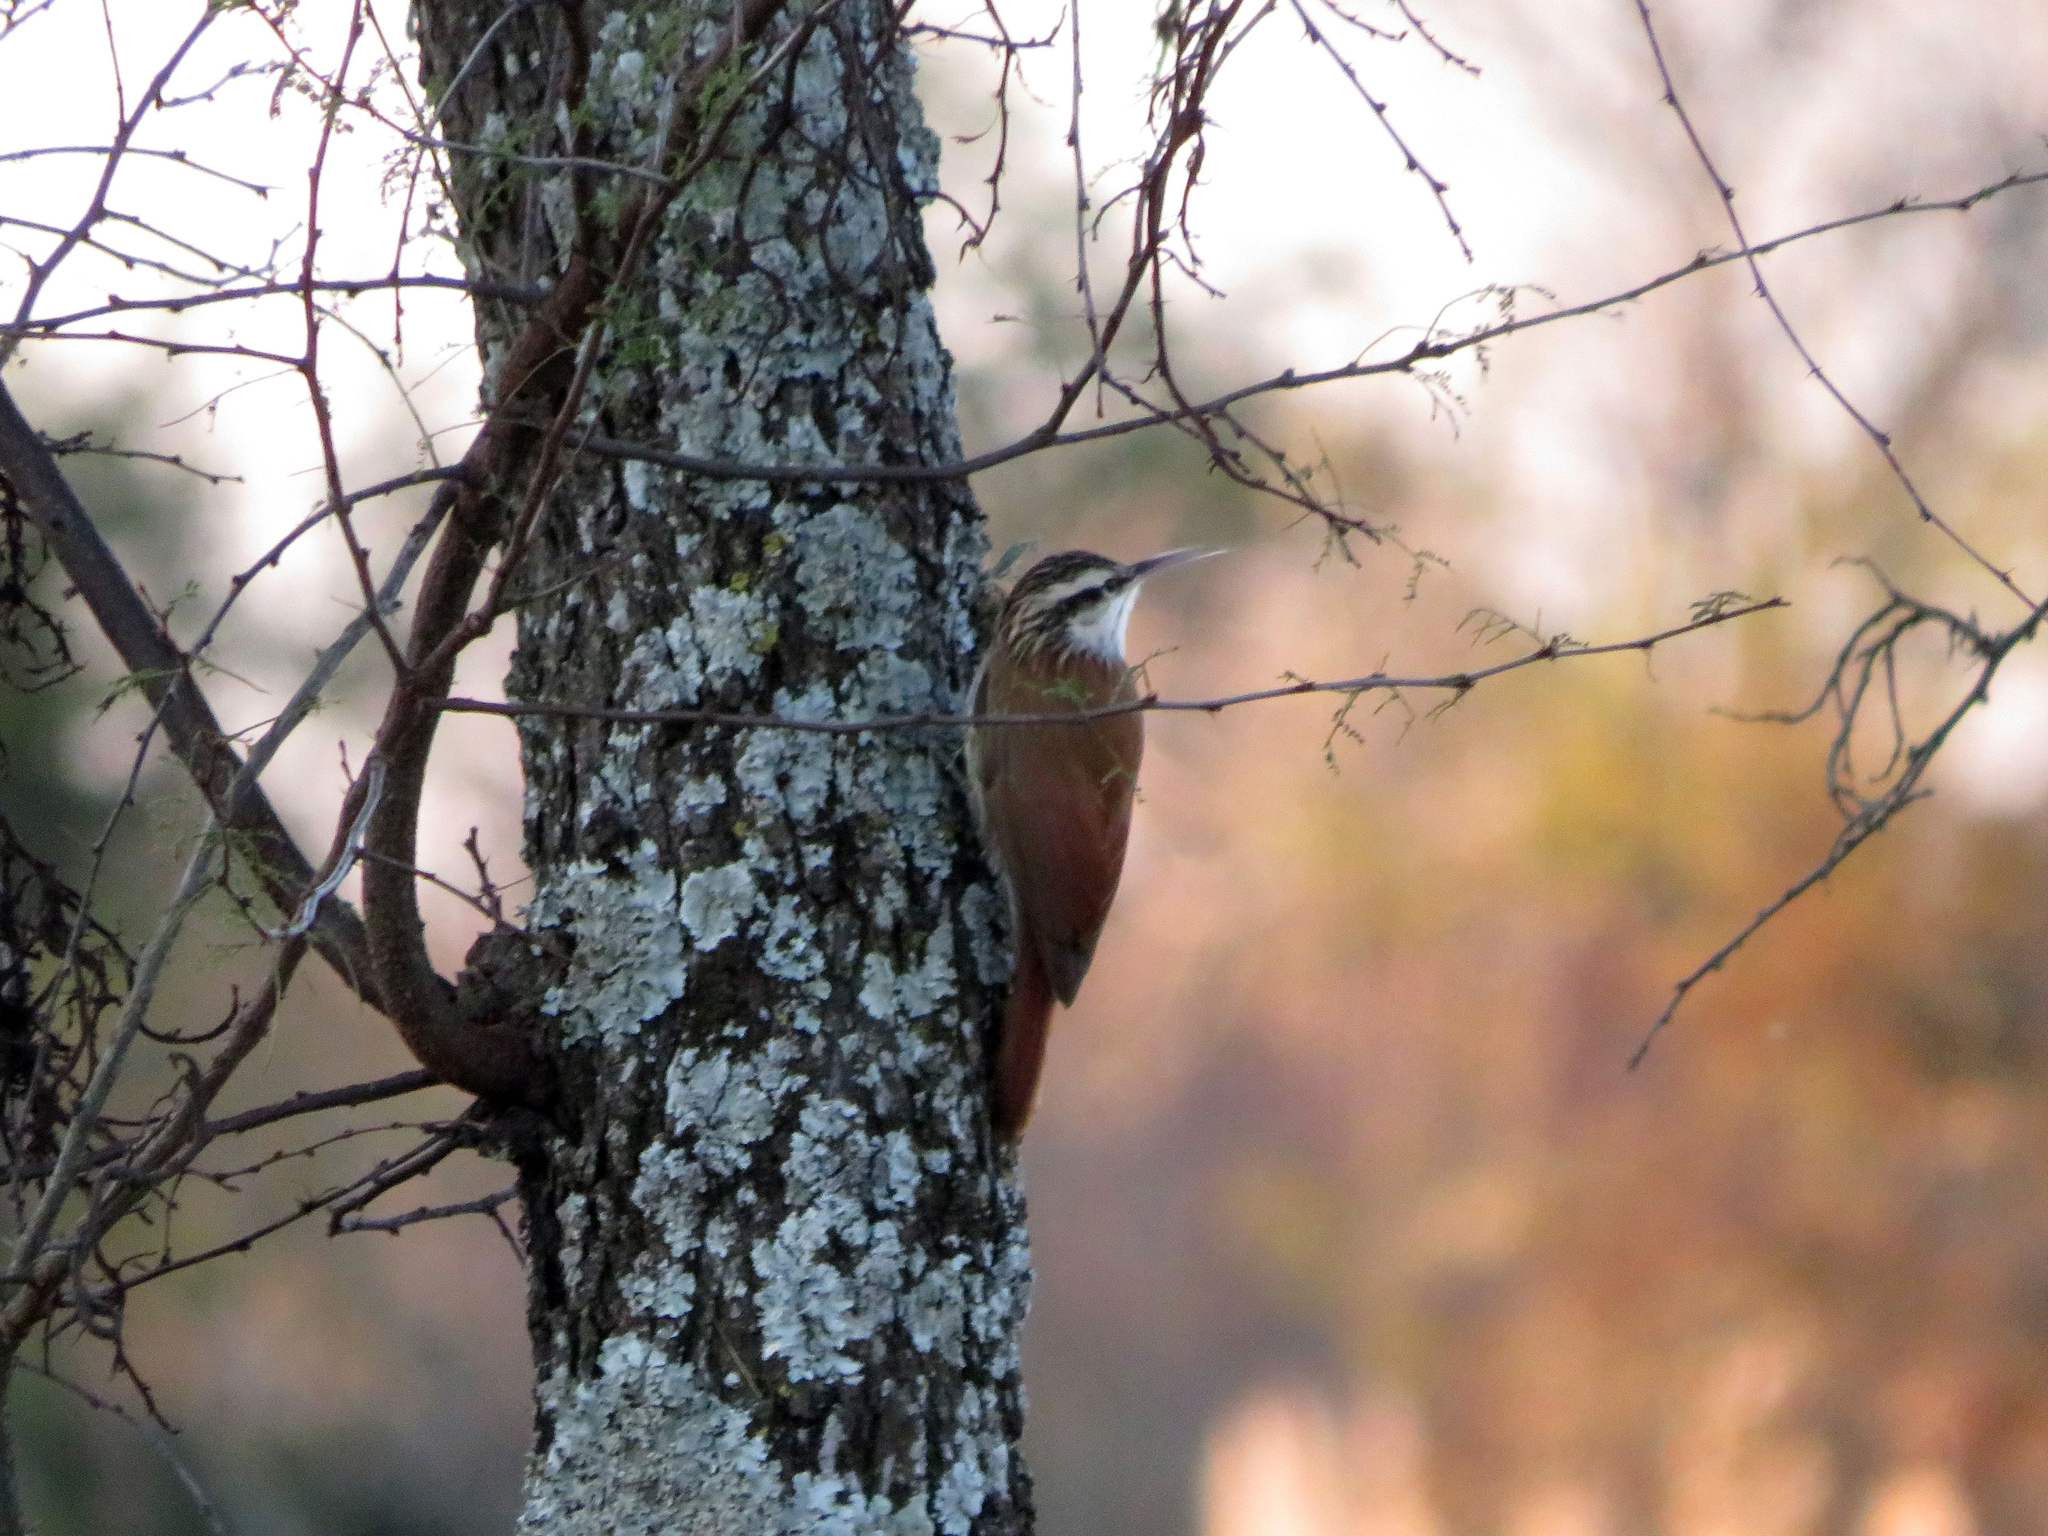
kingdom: Animalia
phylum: Chordata
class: Aves
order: Passeriformes
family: Furnariidae
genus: Lepidocolaptes
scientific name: Lepidocolaptes angustirostris
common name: Narrow-billed woodcreeper
